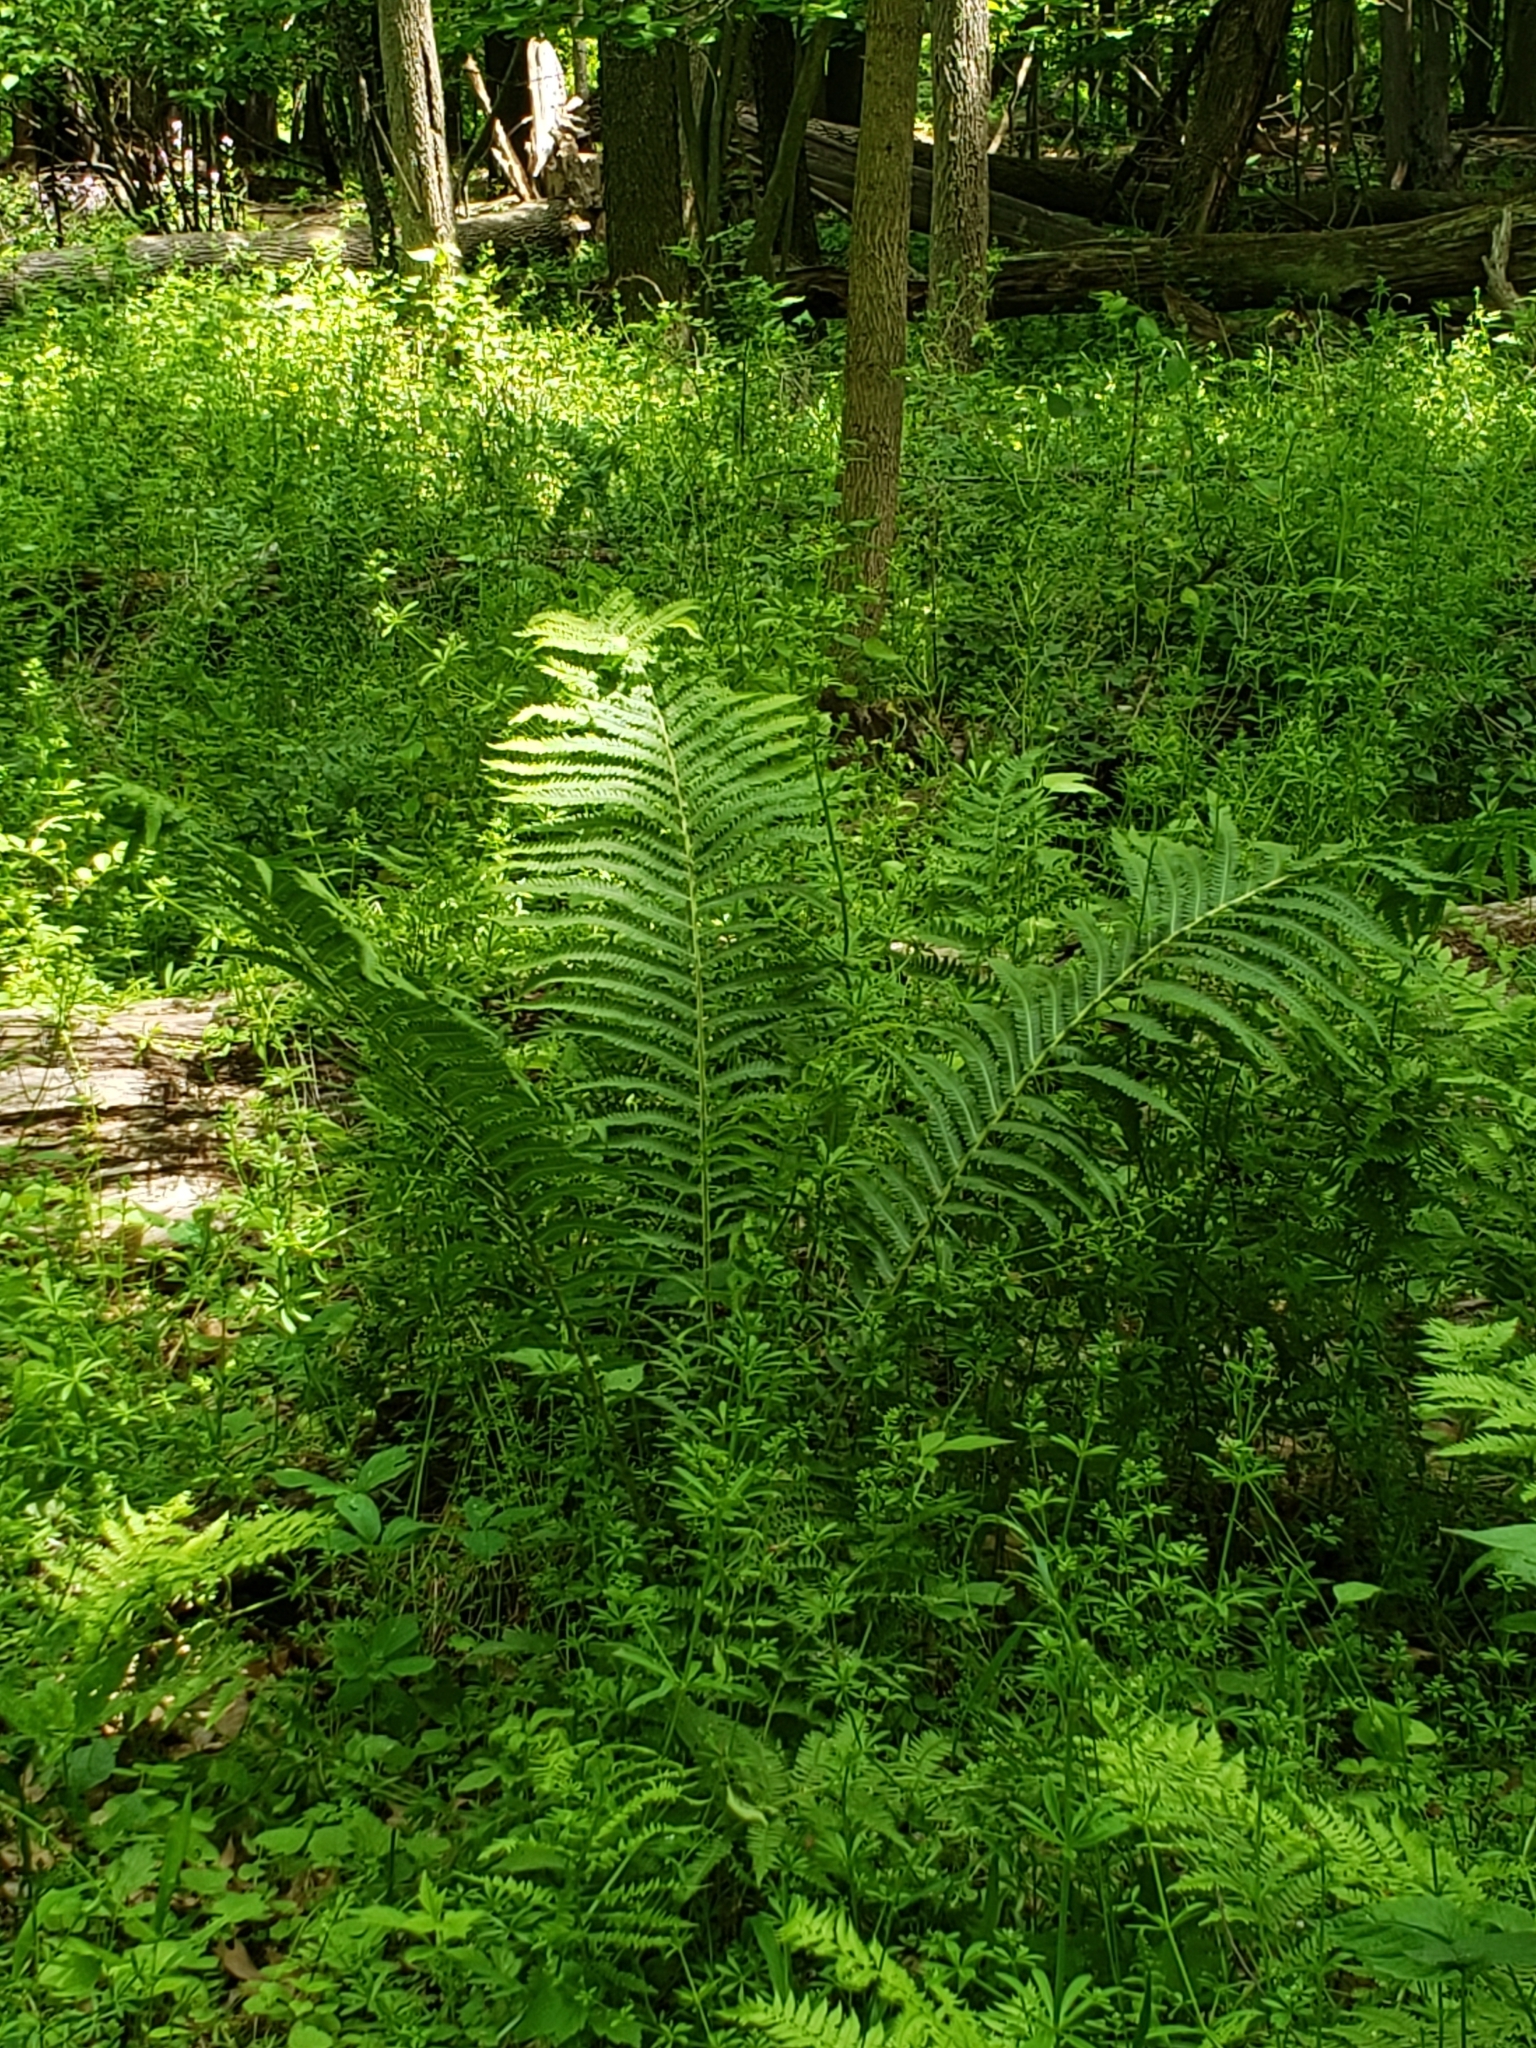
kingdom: Plantae
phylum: Tracheophyta
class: Polypodiopsida
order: Polypodiales
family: Onocleaceae
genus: Matteuccia
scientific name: Matteuccia struthiopteris
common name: Ostrich fern
